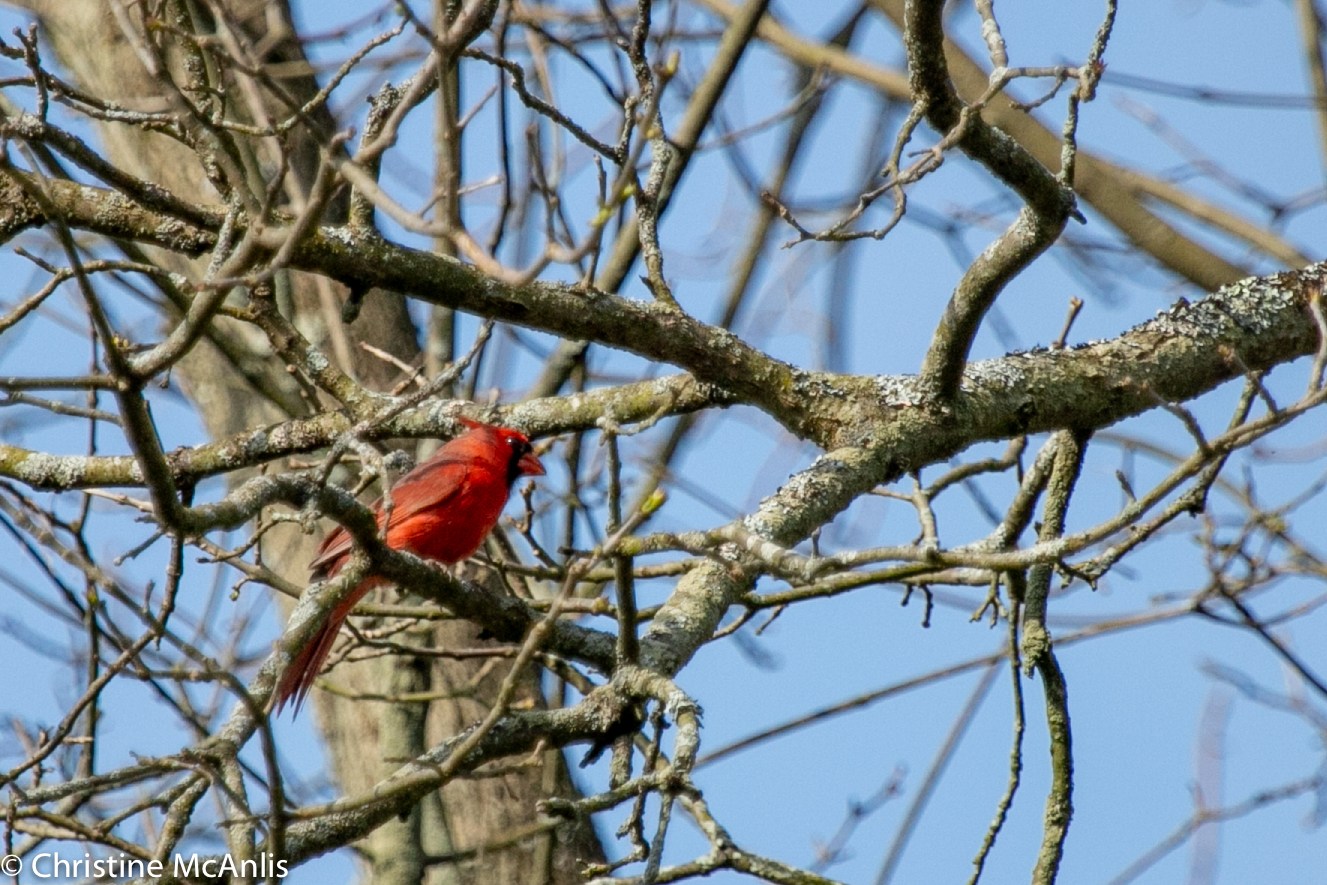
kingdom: Animalia
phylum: Chordata
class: Aves
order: Passeriformes
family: Cardinalidae
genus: Cardinalis
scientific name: Cardinalis cardinalis
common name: Northern cardinal
